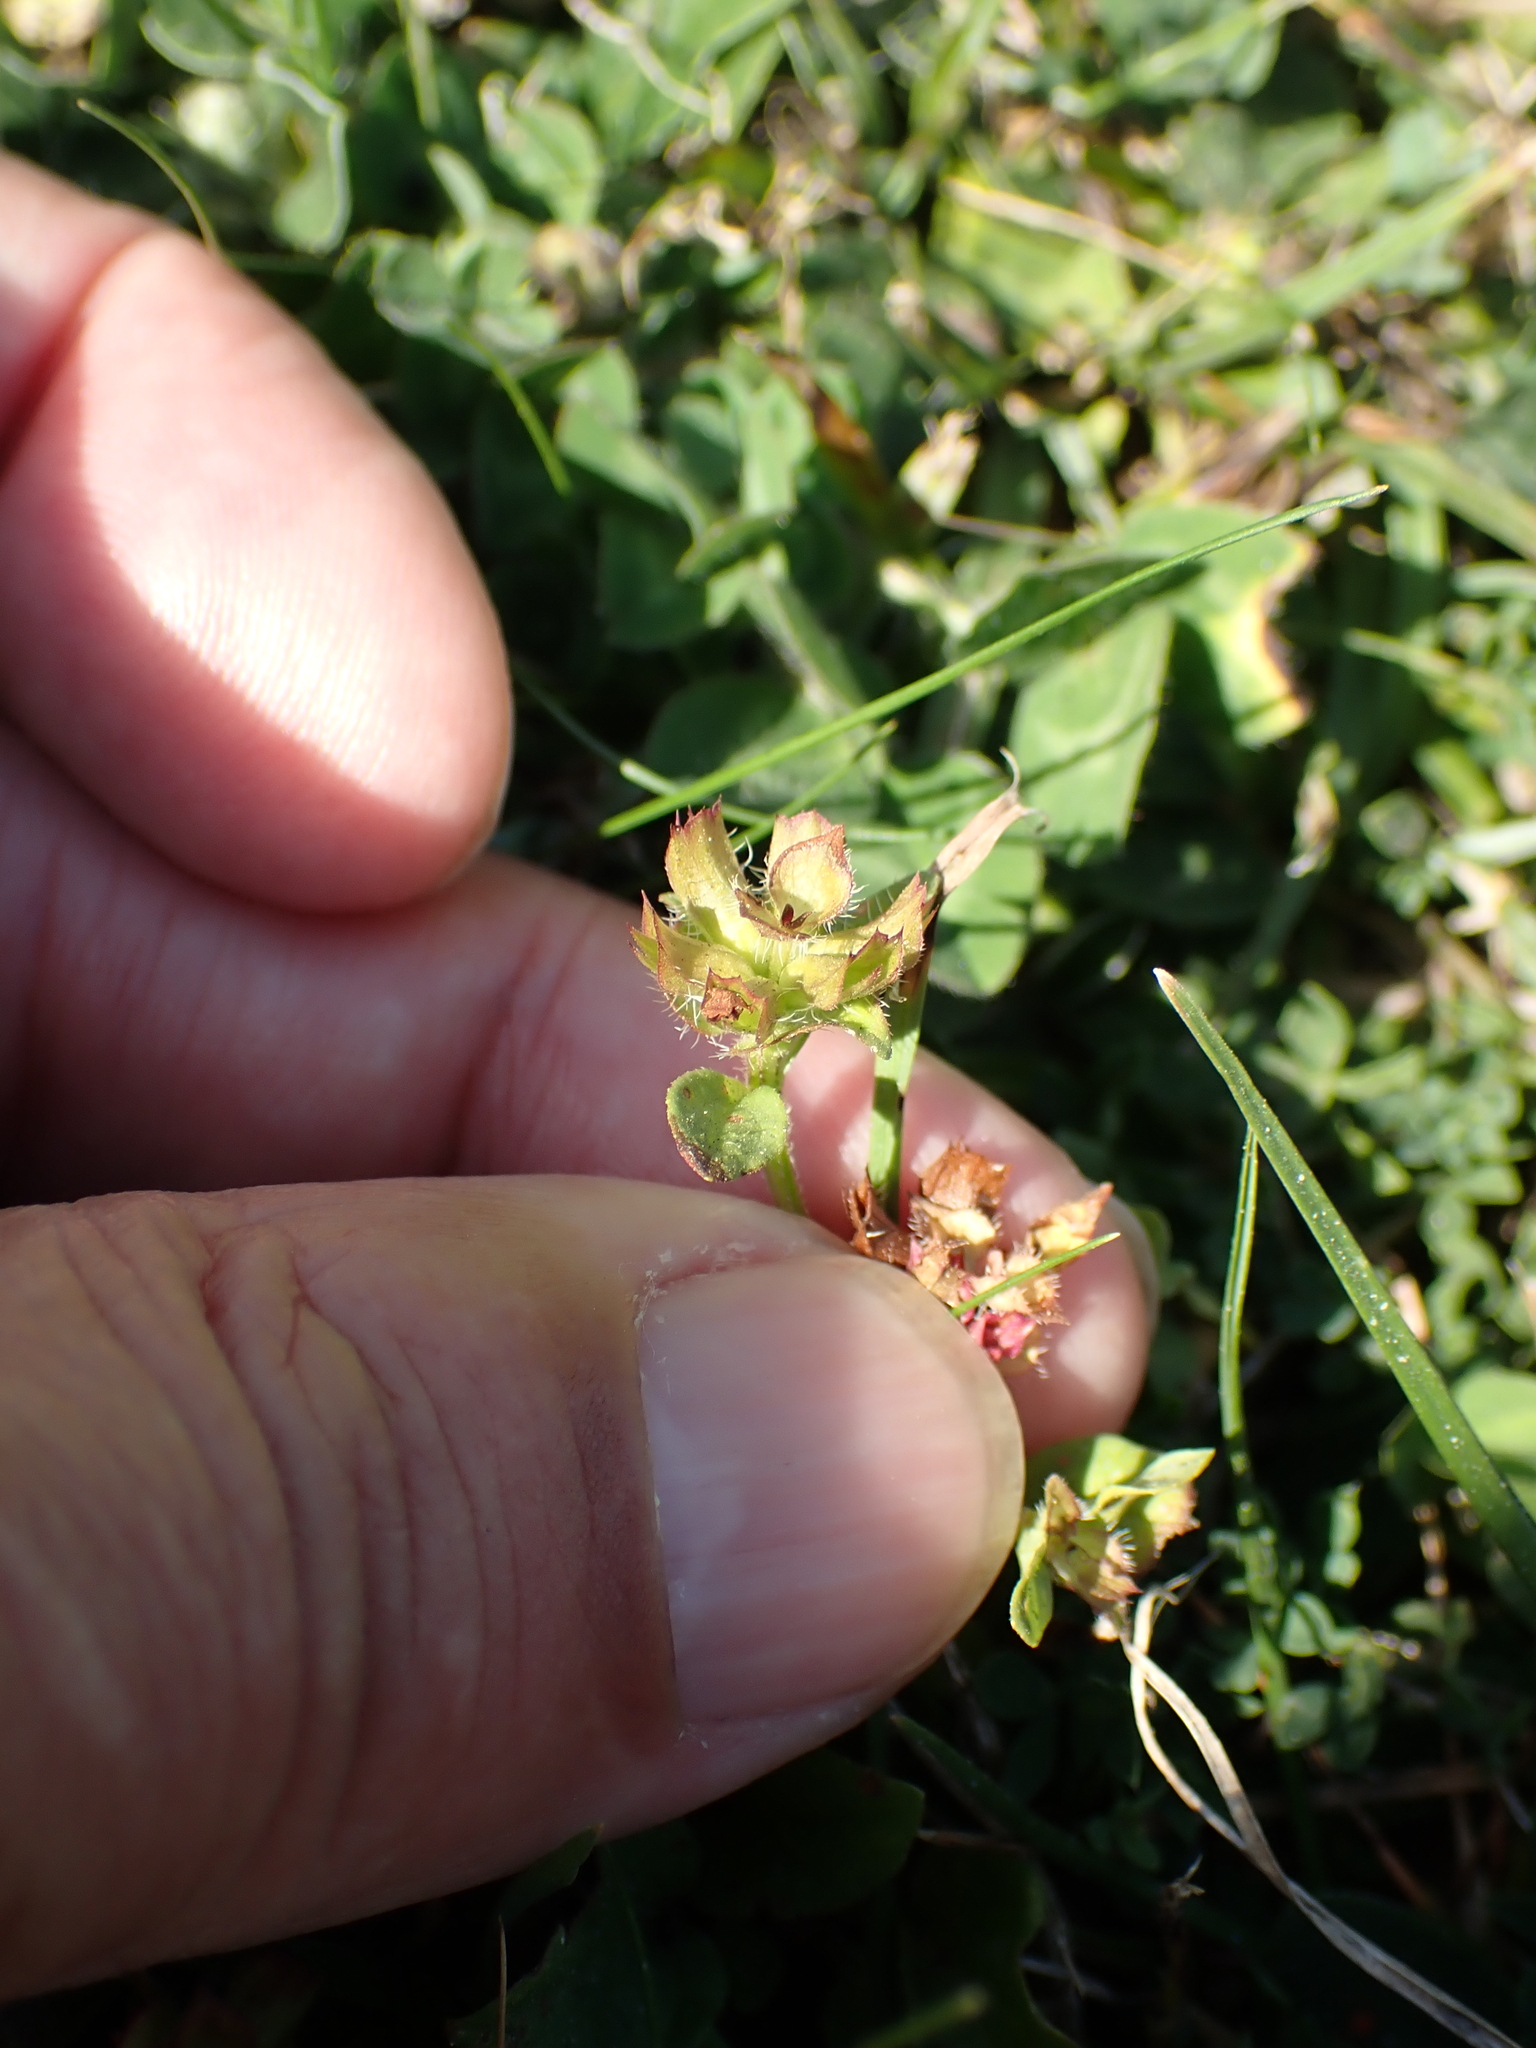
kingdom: Plantae
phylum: Tracheophyta
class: Magnoliopsida
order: Lamiales
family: Lamiaceae
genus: Prunella
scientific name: Prunella vulgaris
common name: Heal-all
